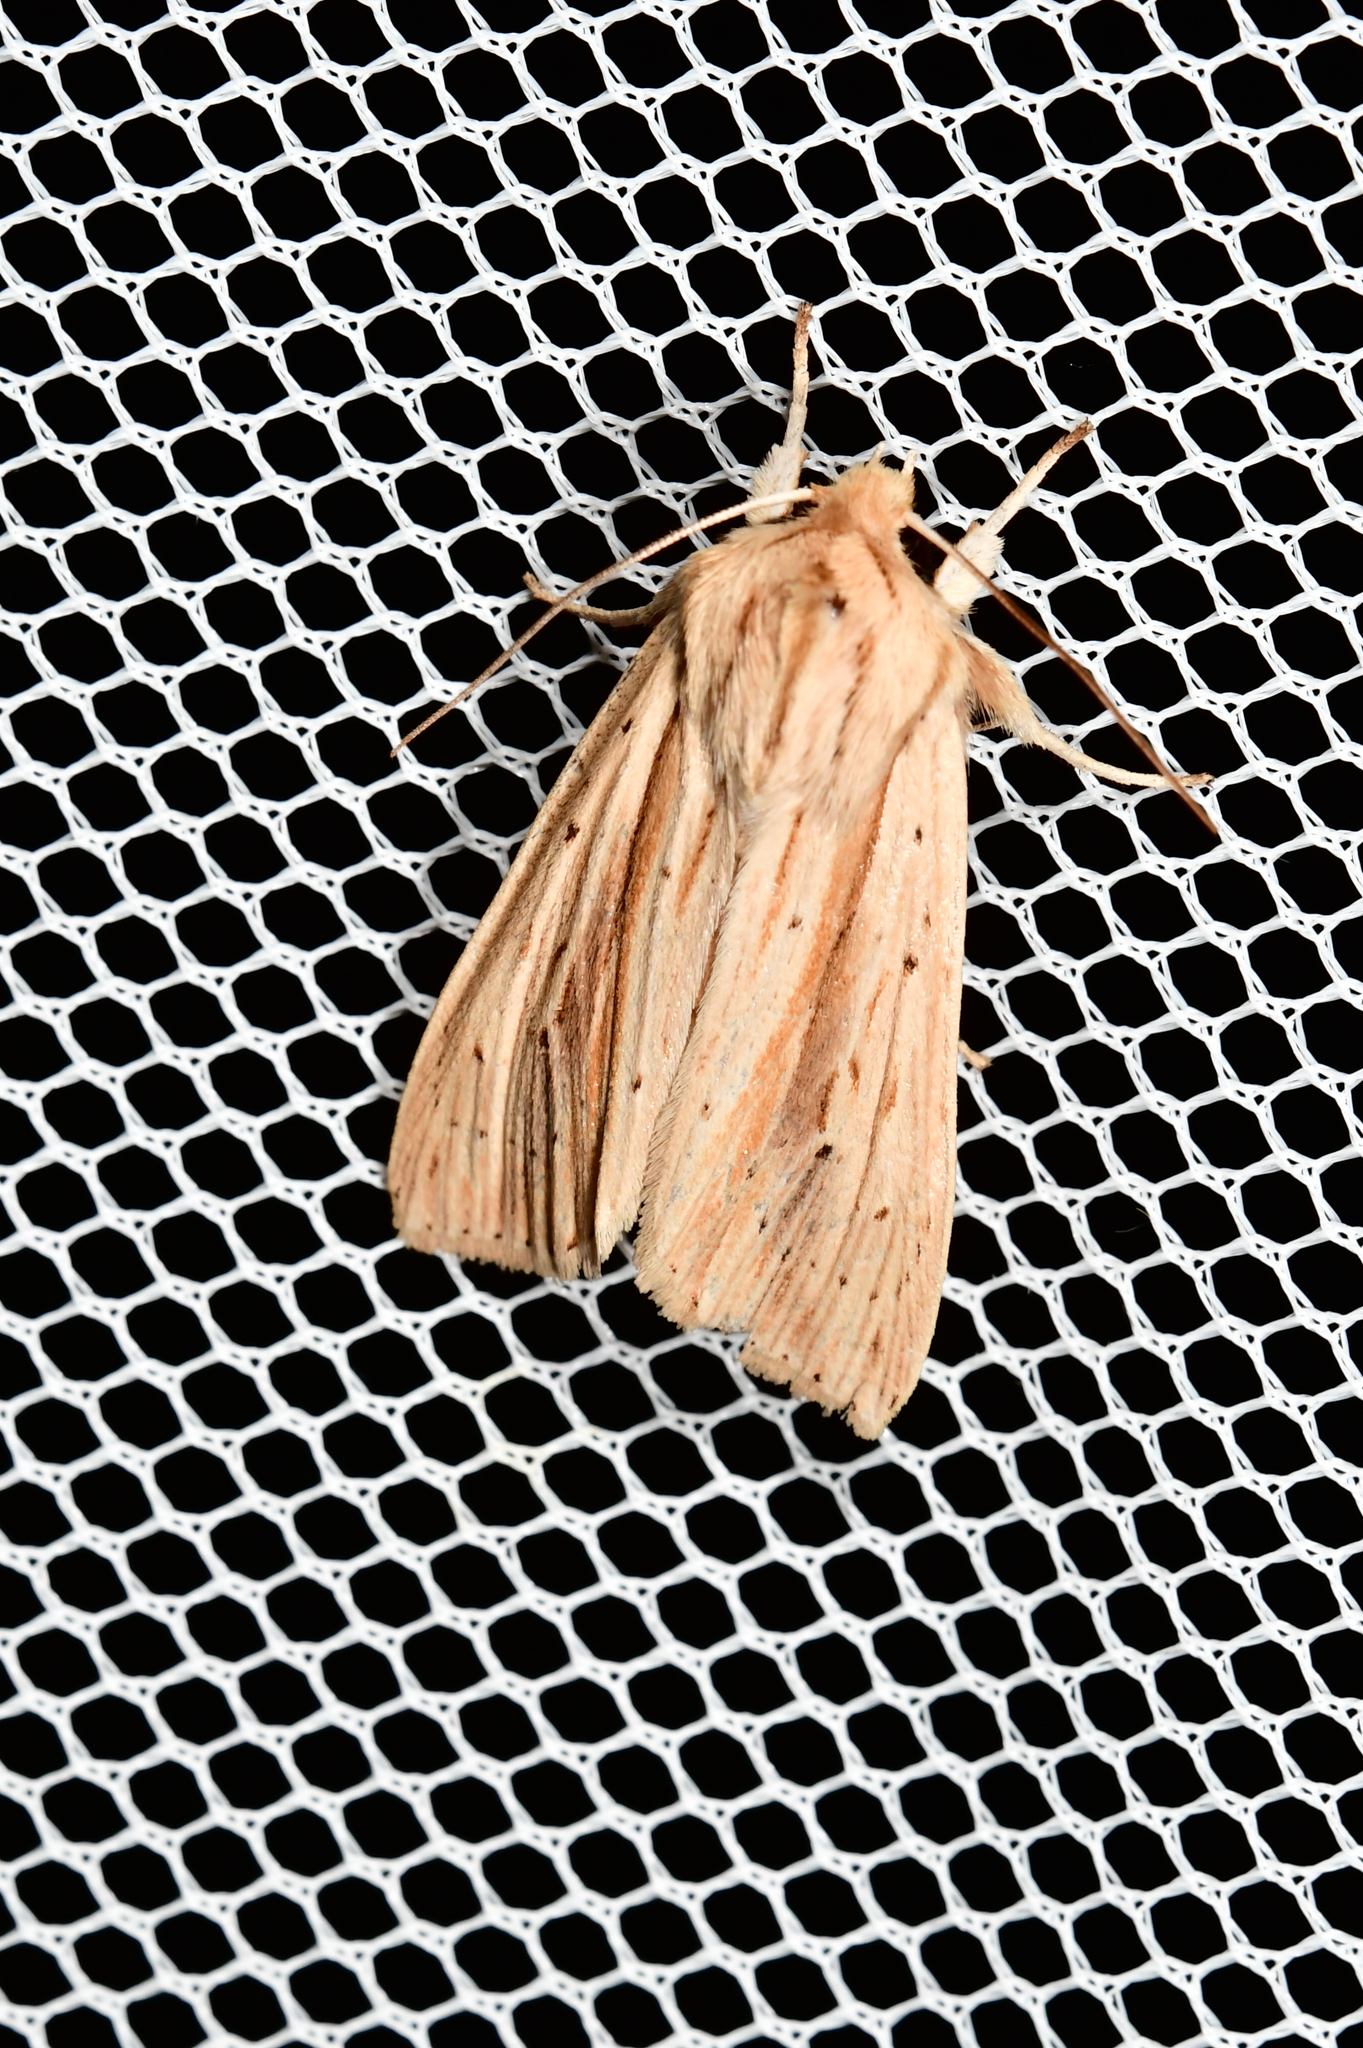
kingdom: Animalia
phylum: Arthropoda
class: Insecta
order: Lepidoptera
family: Noctuidae
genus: Ichneutica
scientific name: Ichneutica semivittata
